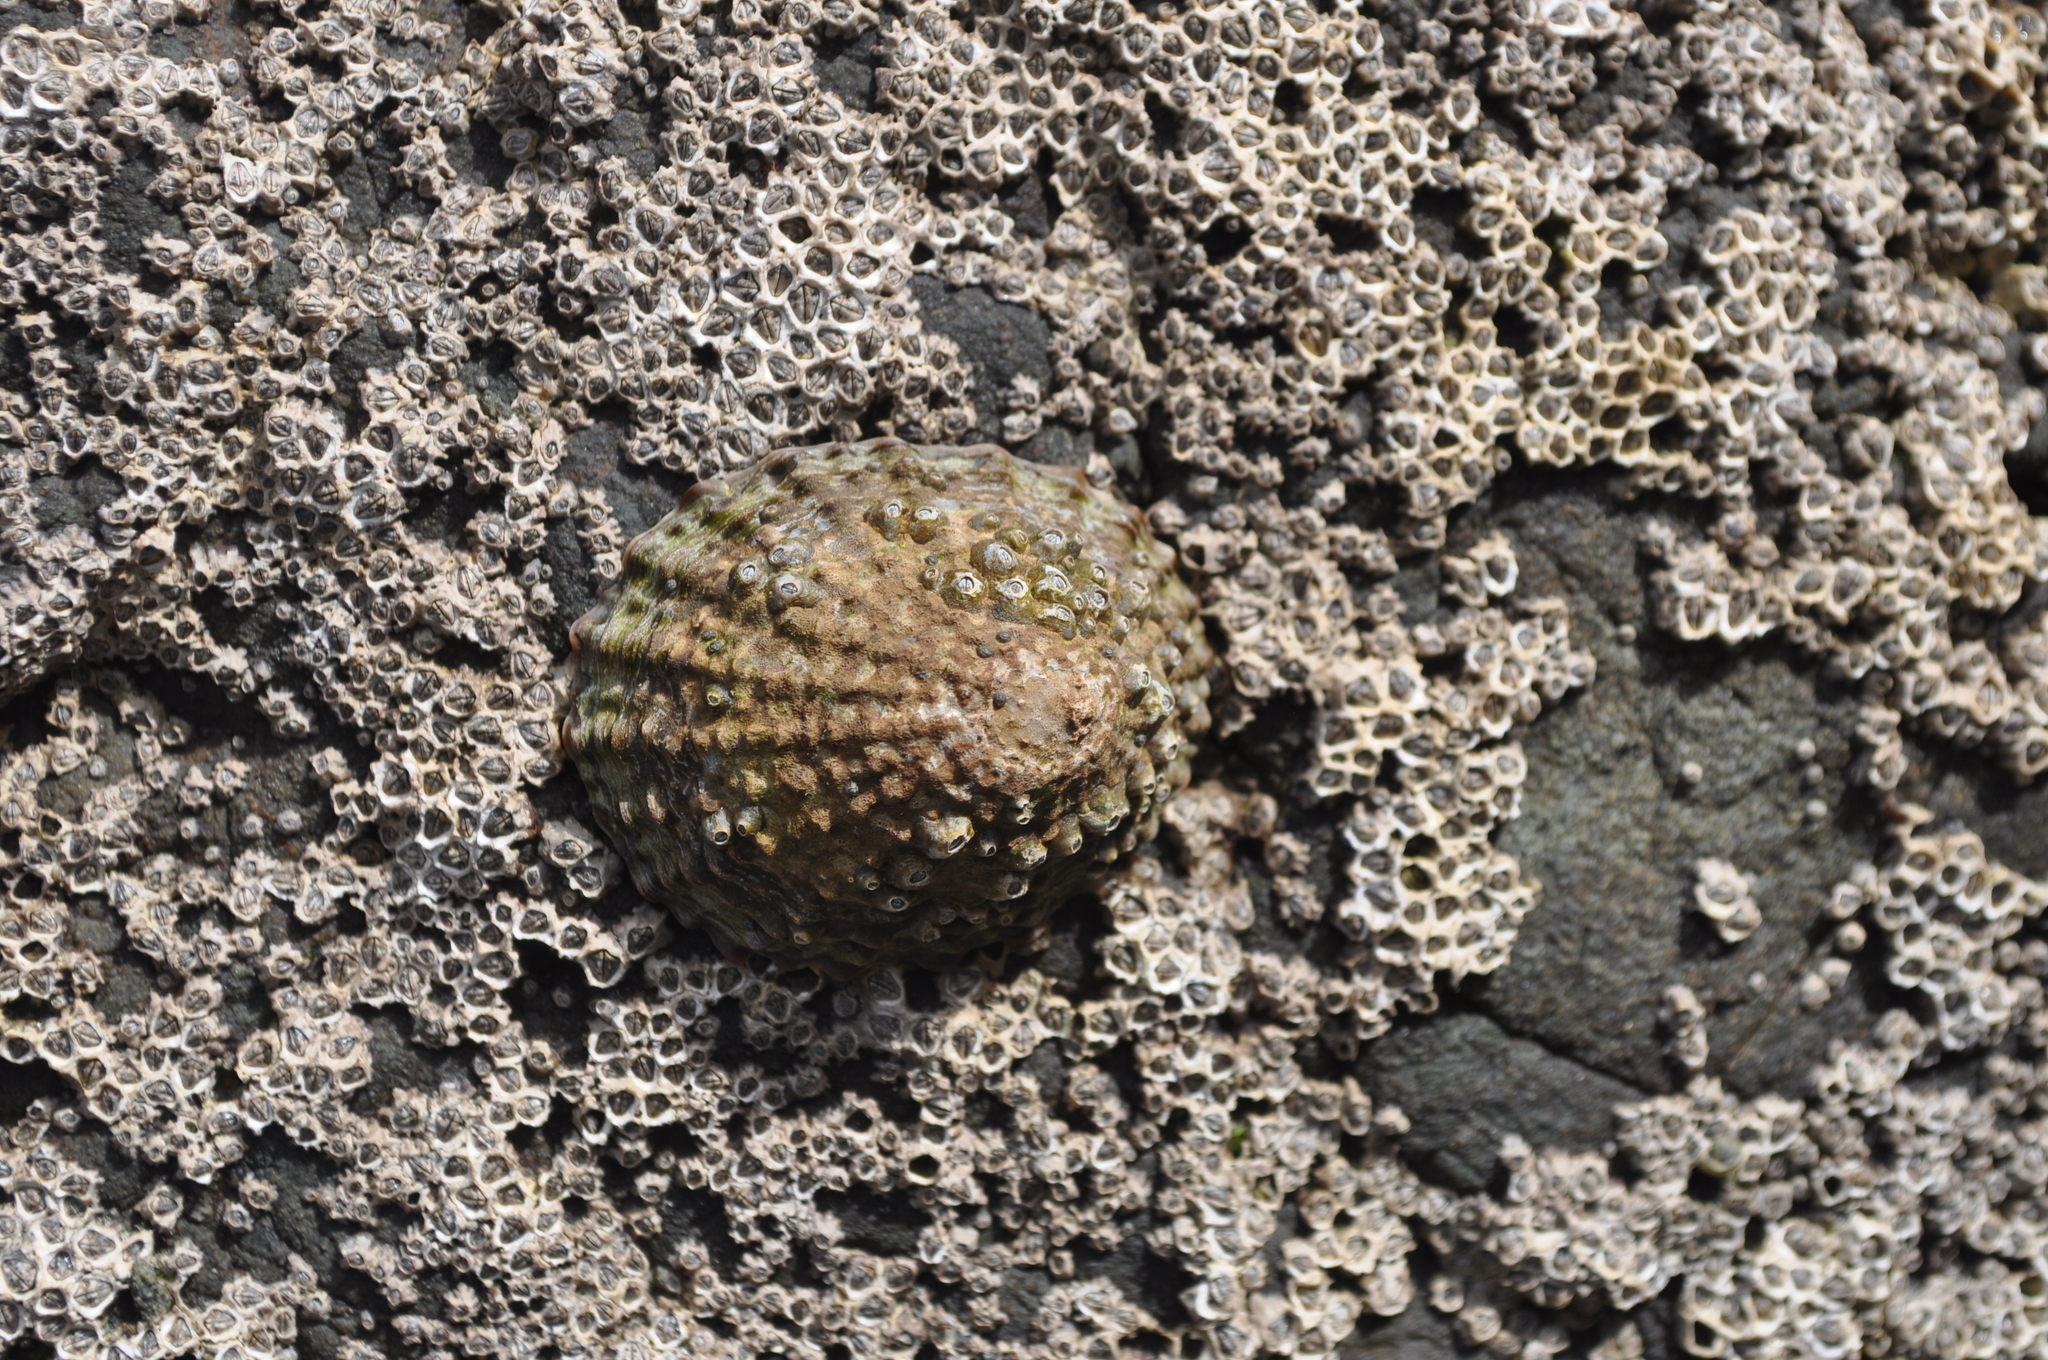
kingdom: Animalia
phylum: Mollusca
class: Gastropoda
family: Nacellidae
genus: Cellana
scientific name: Cellana denticulata
